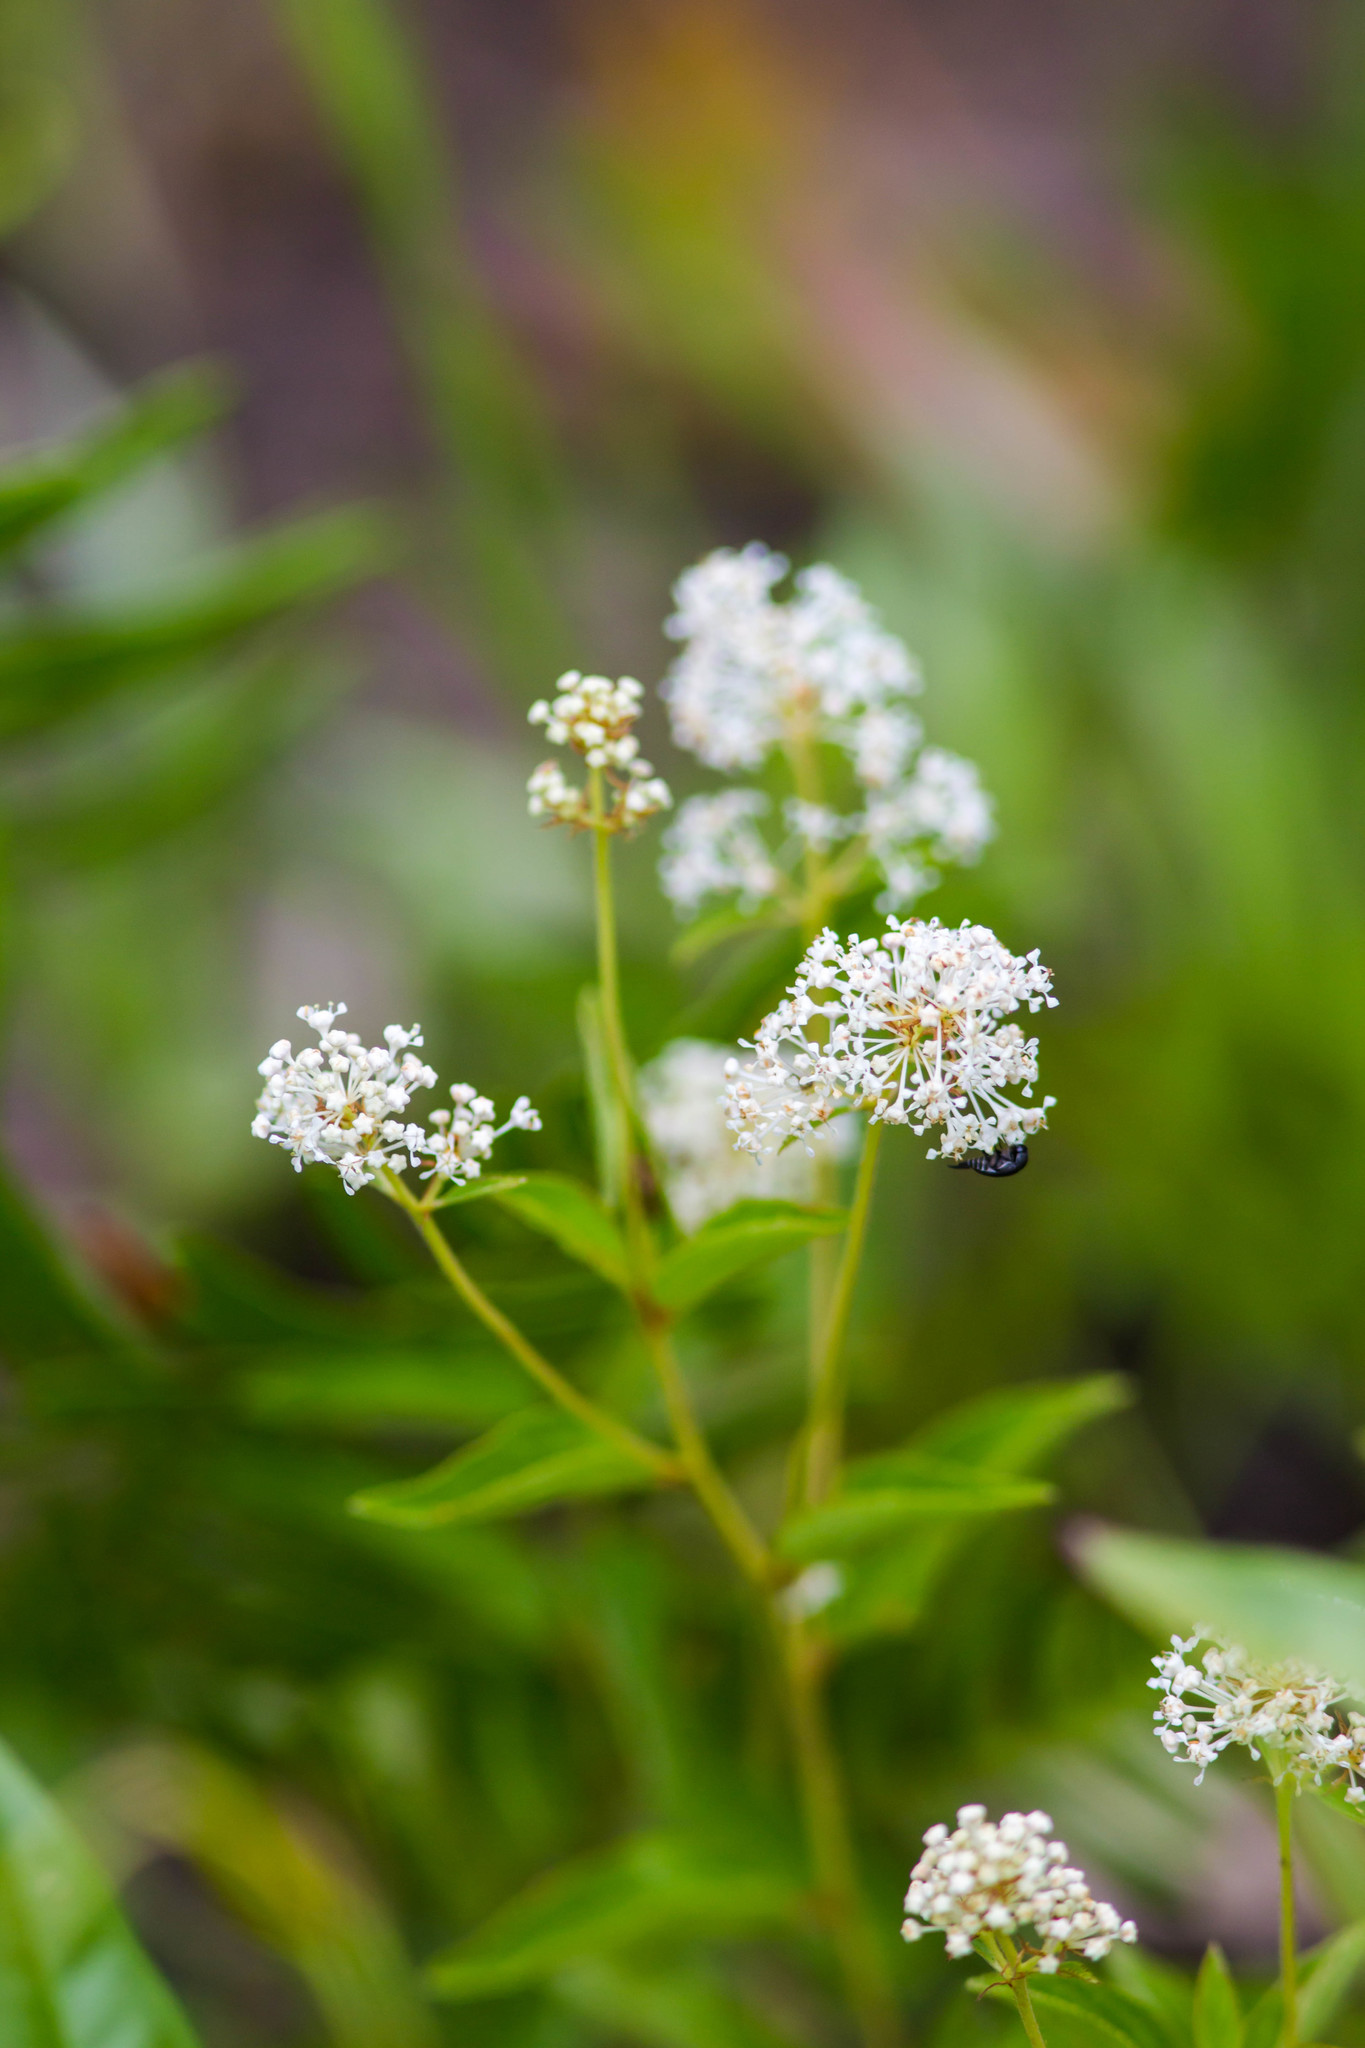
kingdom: Plantae
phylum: Tracheophyta
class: Magnoliopsida
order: Rosales
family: Rhamnaceae
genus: Ceanothus
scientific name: Ceanothus americanus
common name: Redroot
